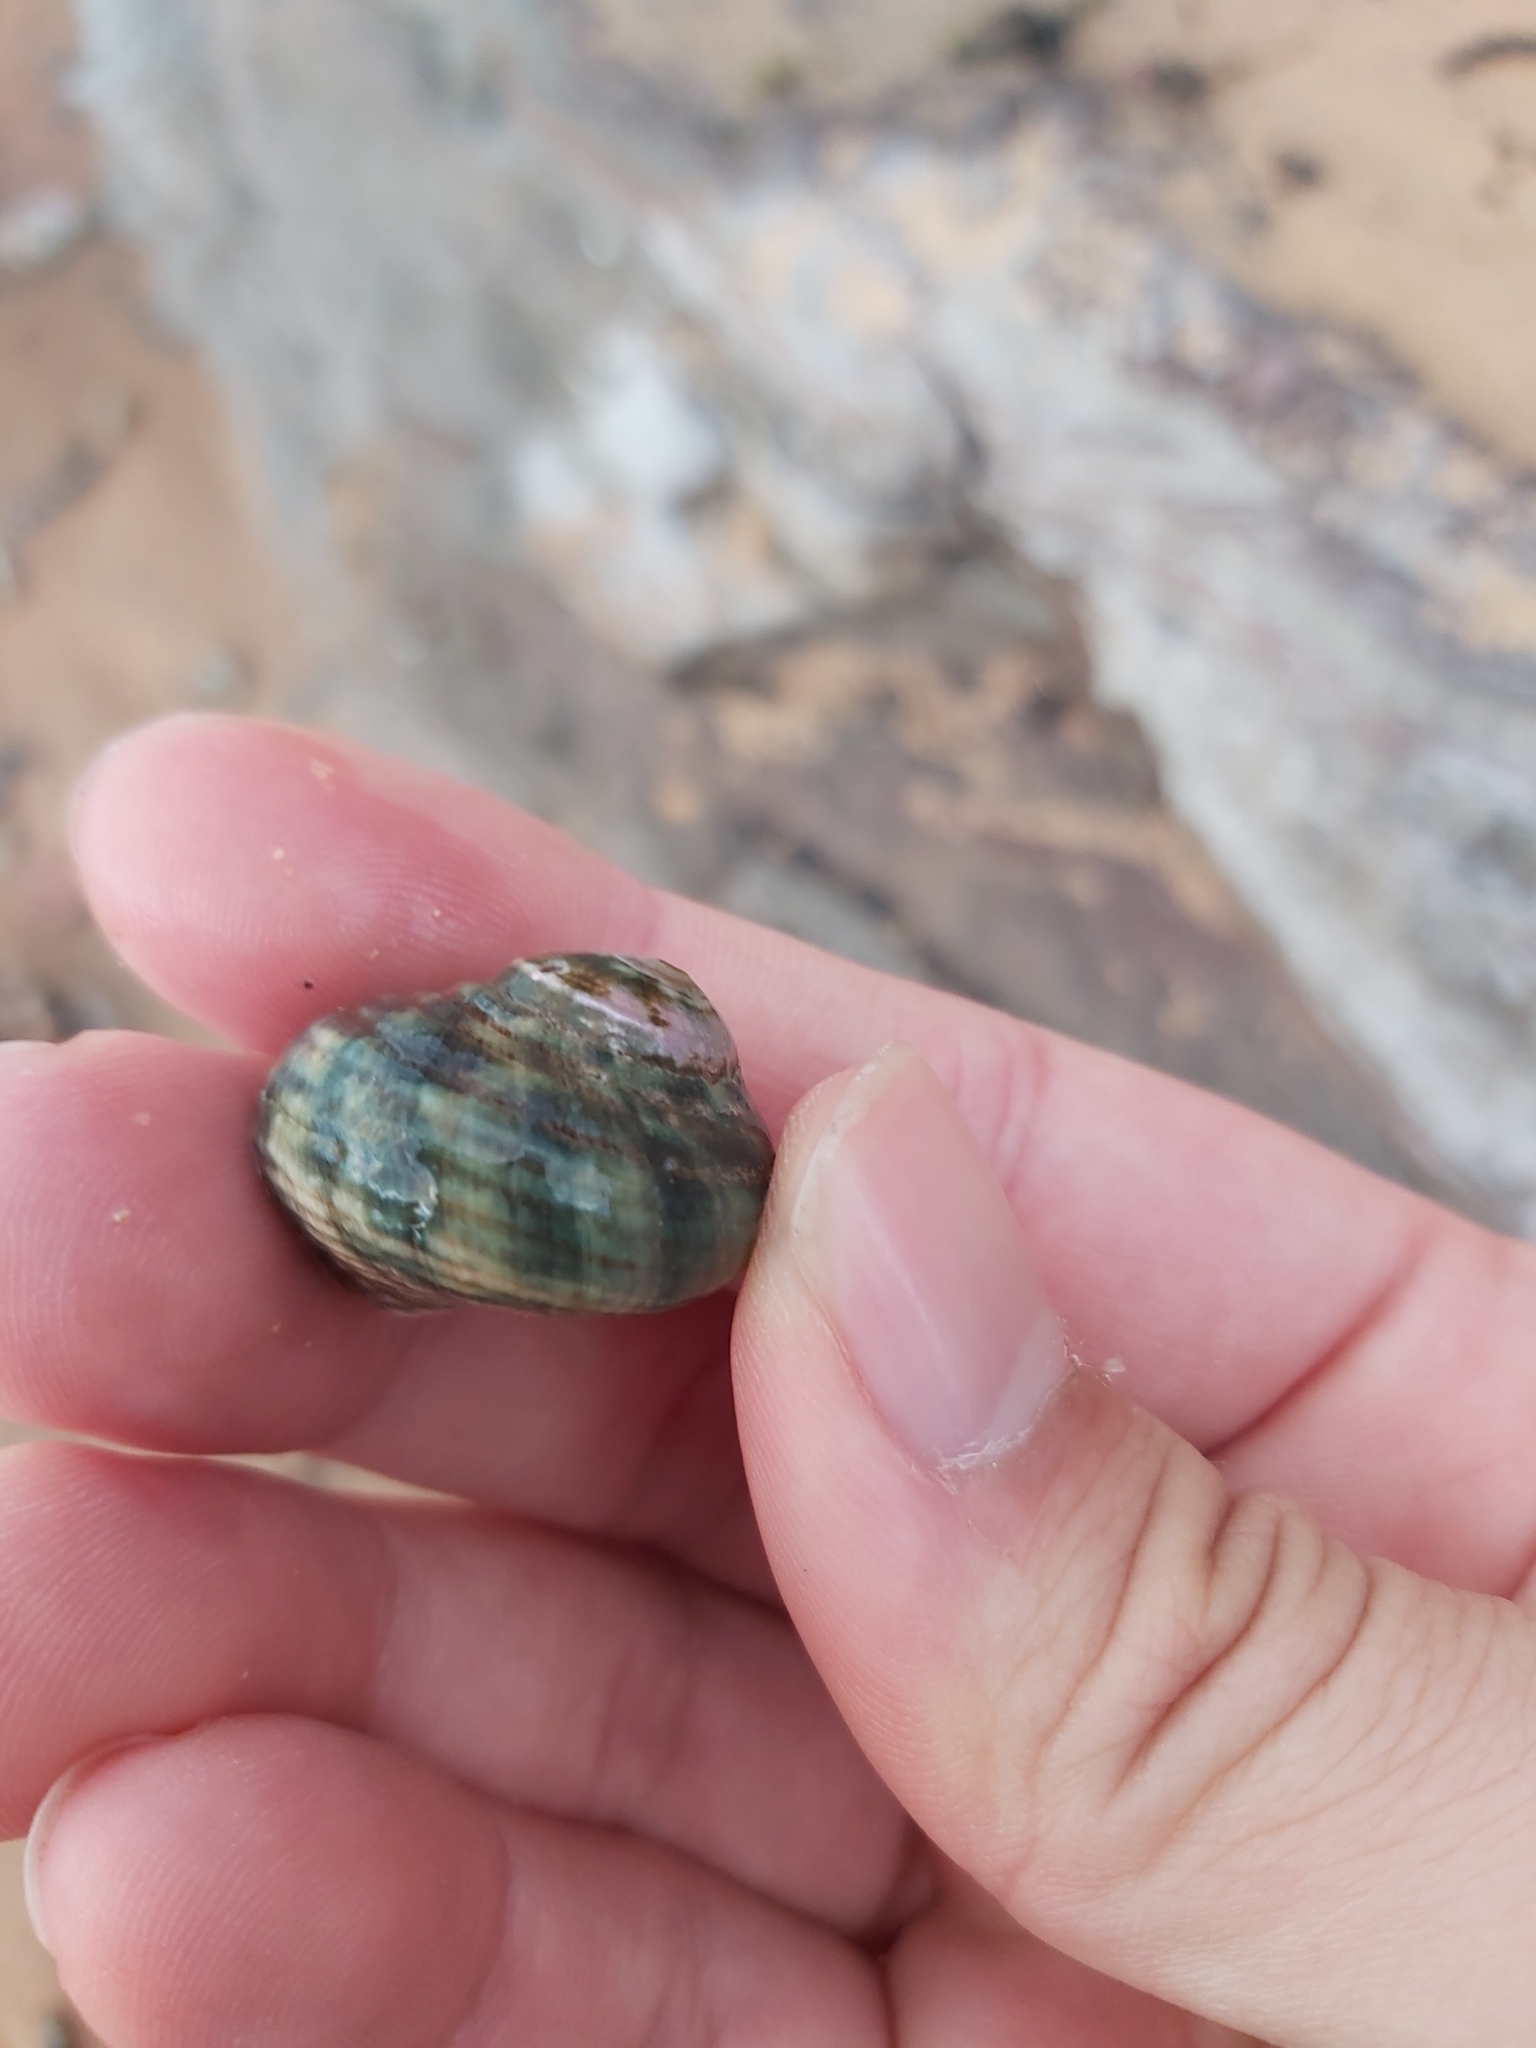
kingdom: Animalia
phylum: Mollusca
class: Gastropoda
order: Trochida
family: Turbinidae
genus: Lunella
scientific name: Lunella undulata
